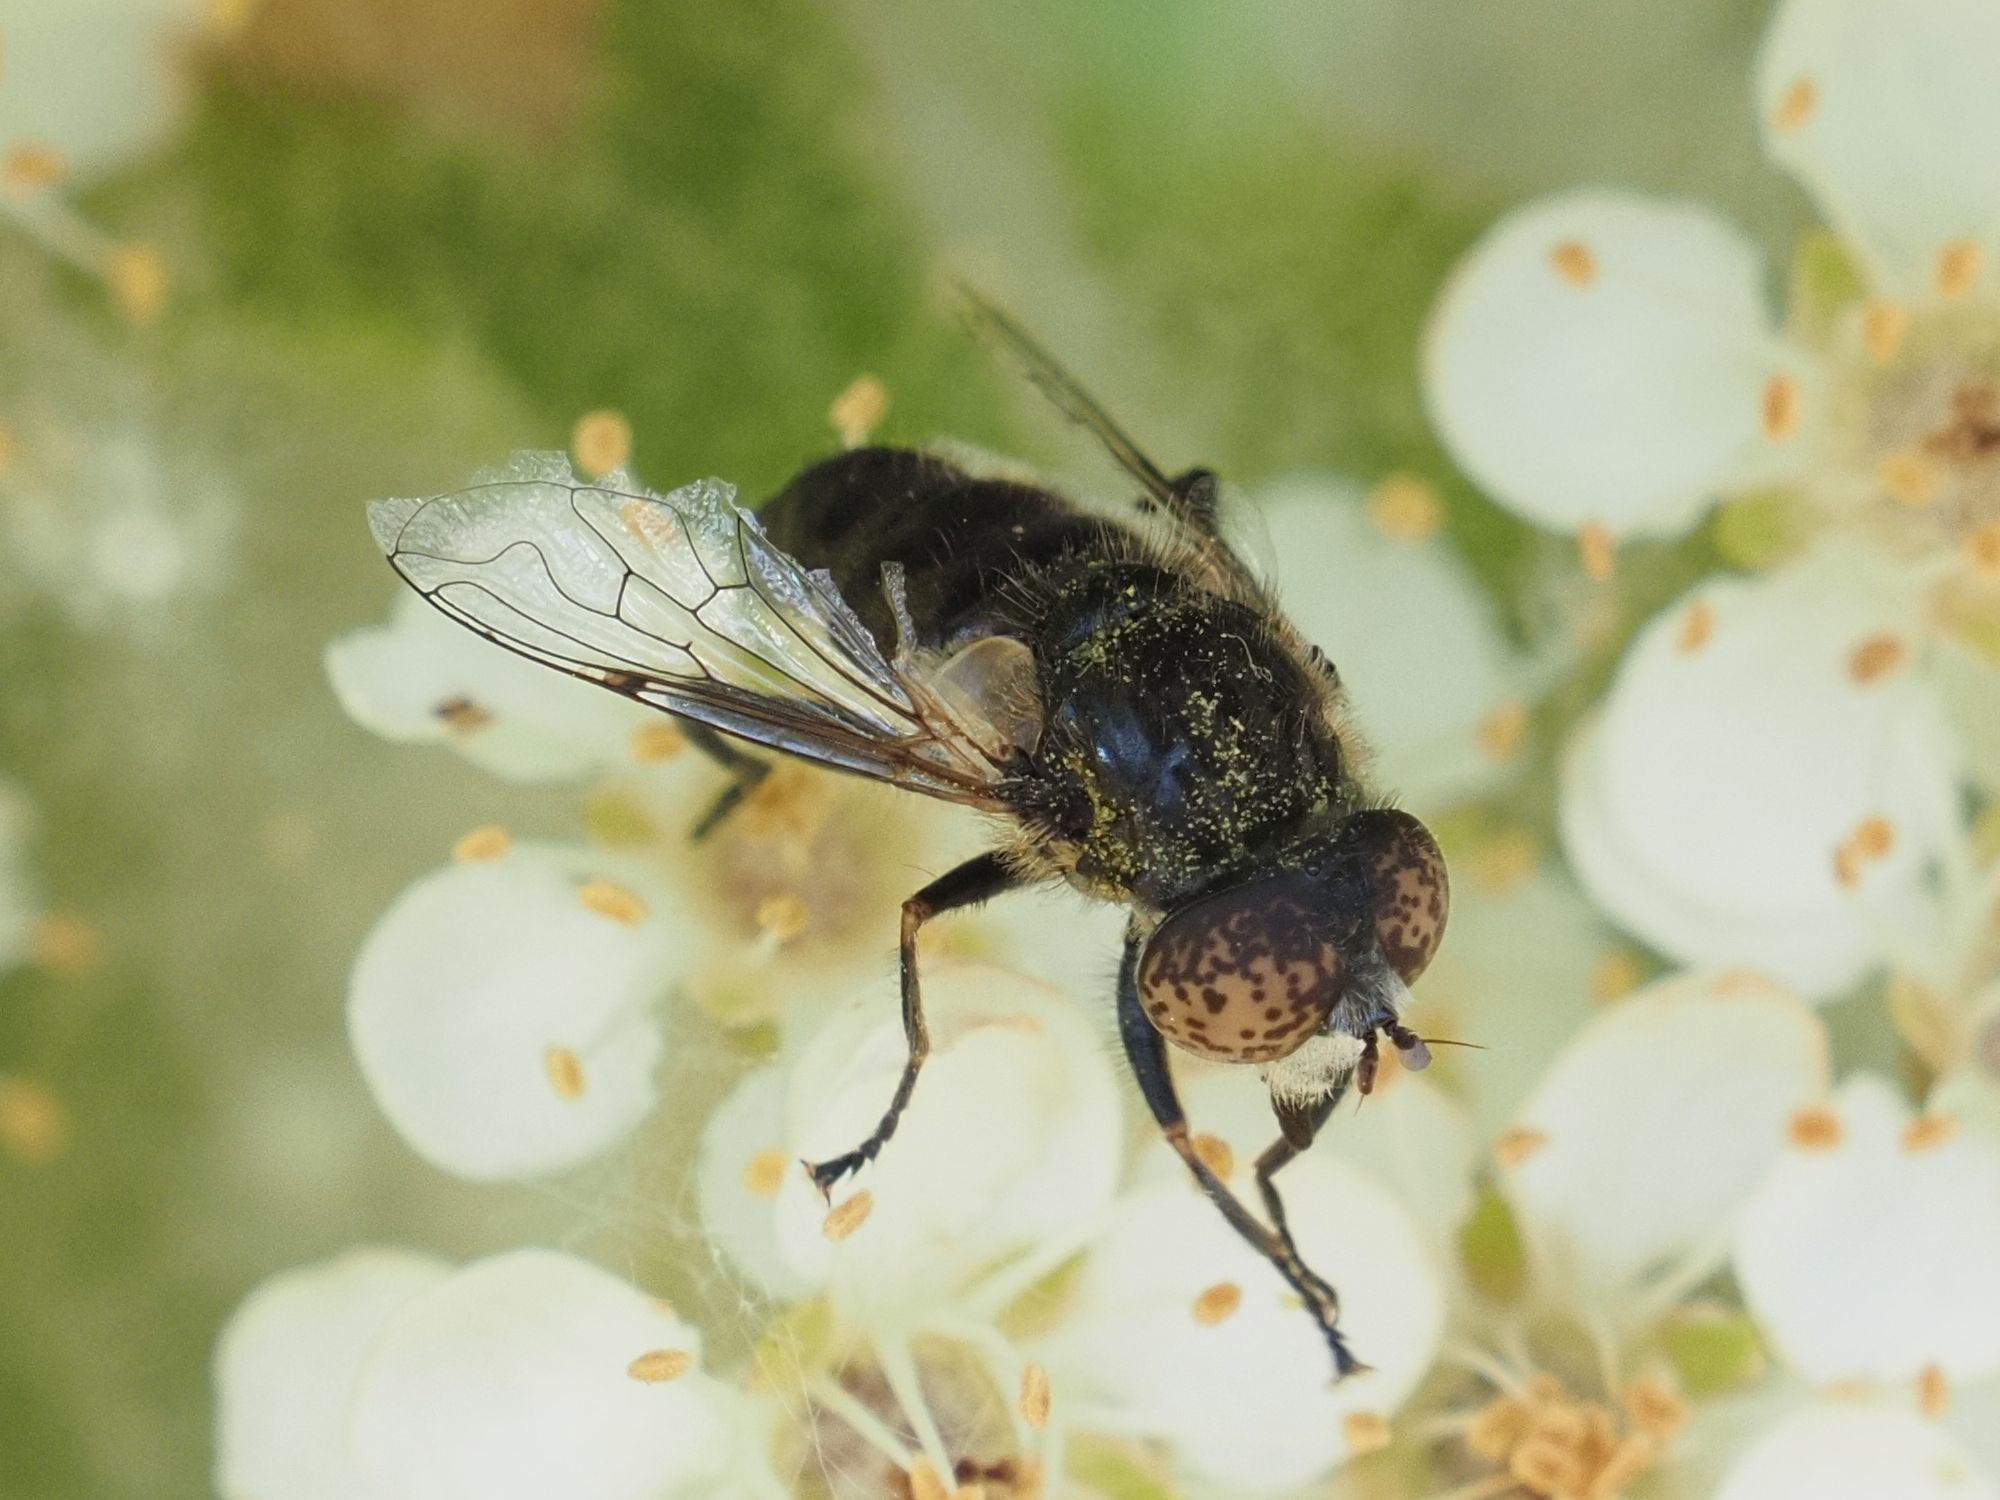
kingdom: Animalia
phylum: Arthropoda
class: Insecta
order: Diptera
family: Syrphidae
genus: Eristalinus
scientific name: Eristalinus sepulchralis
